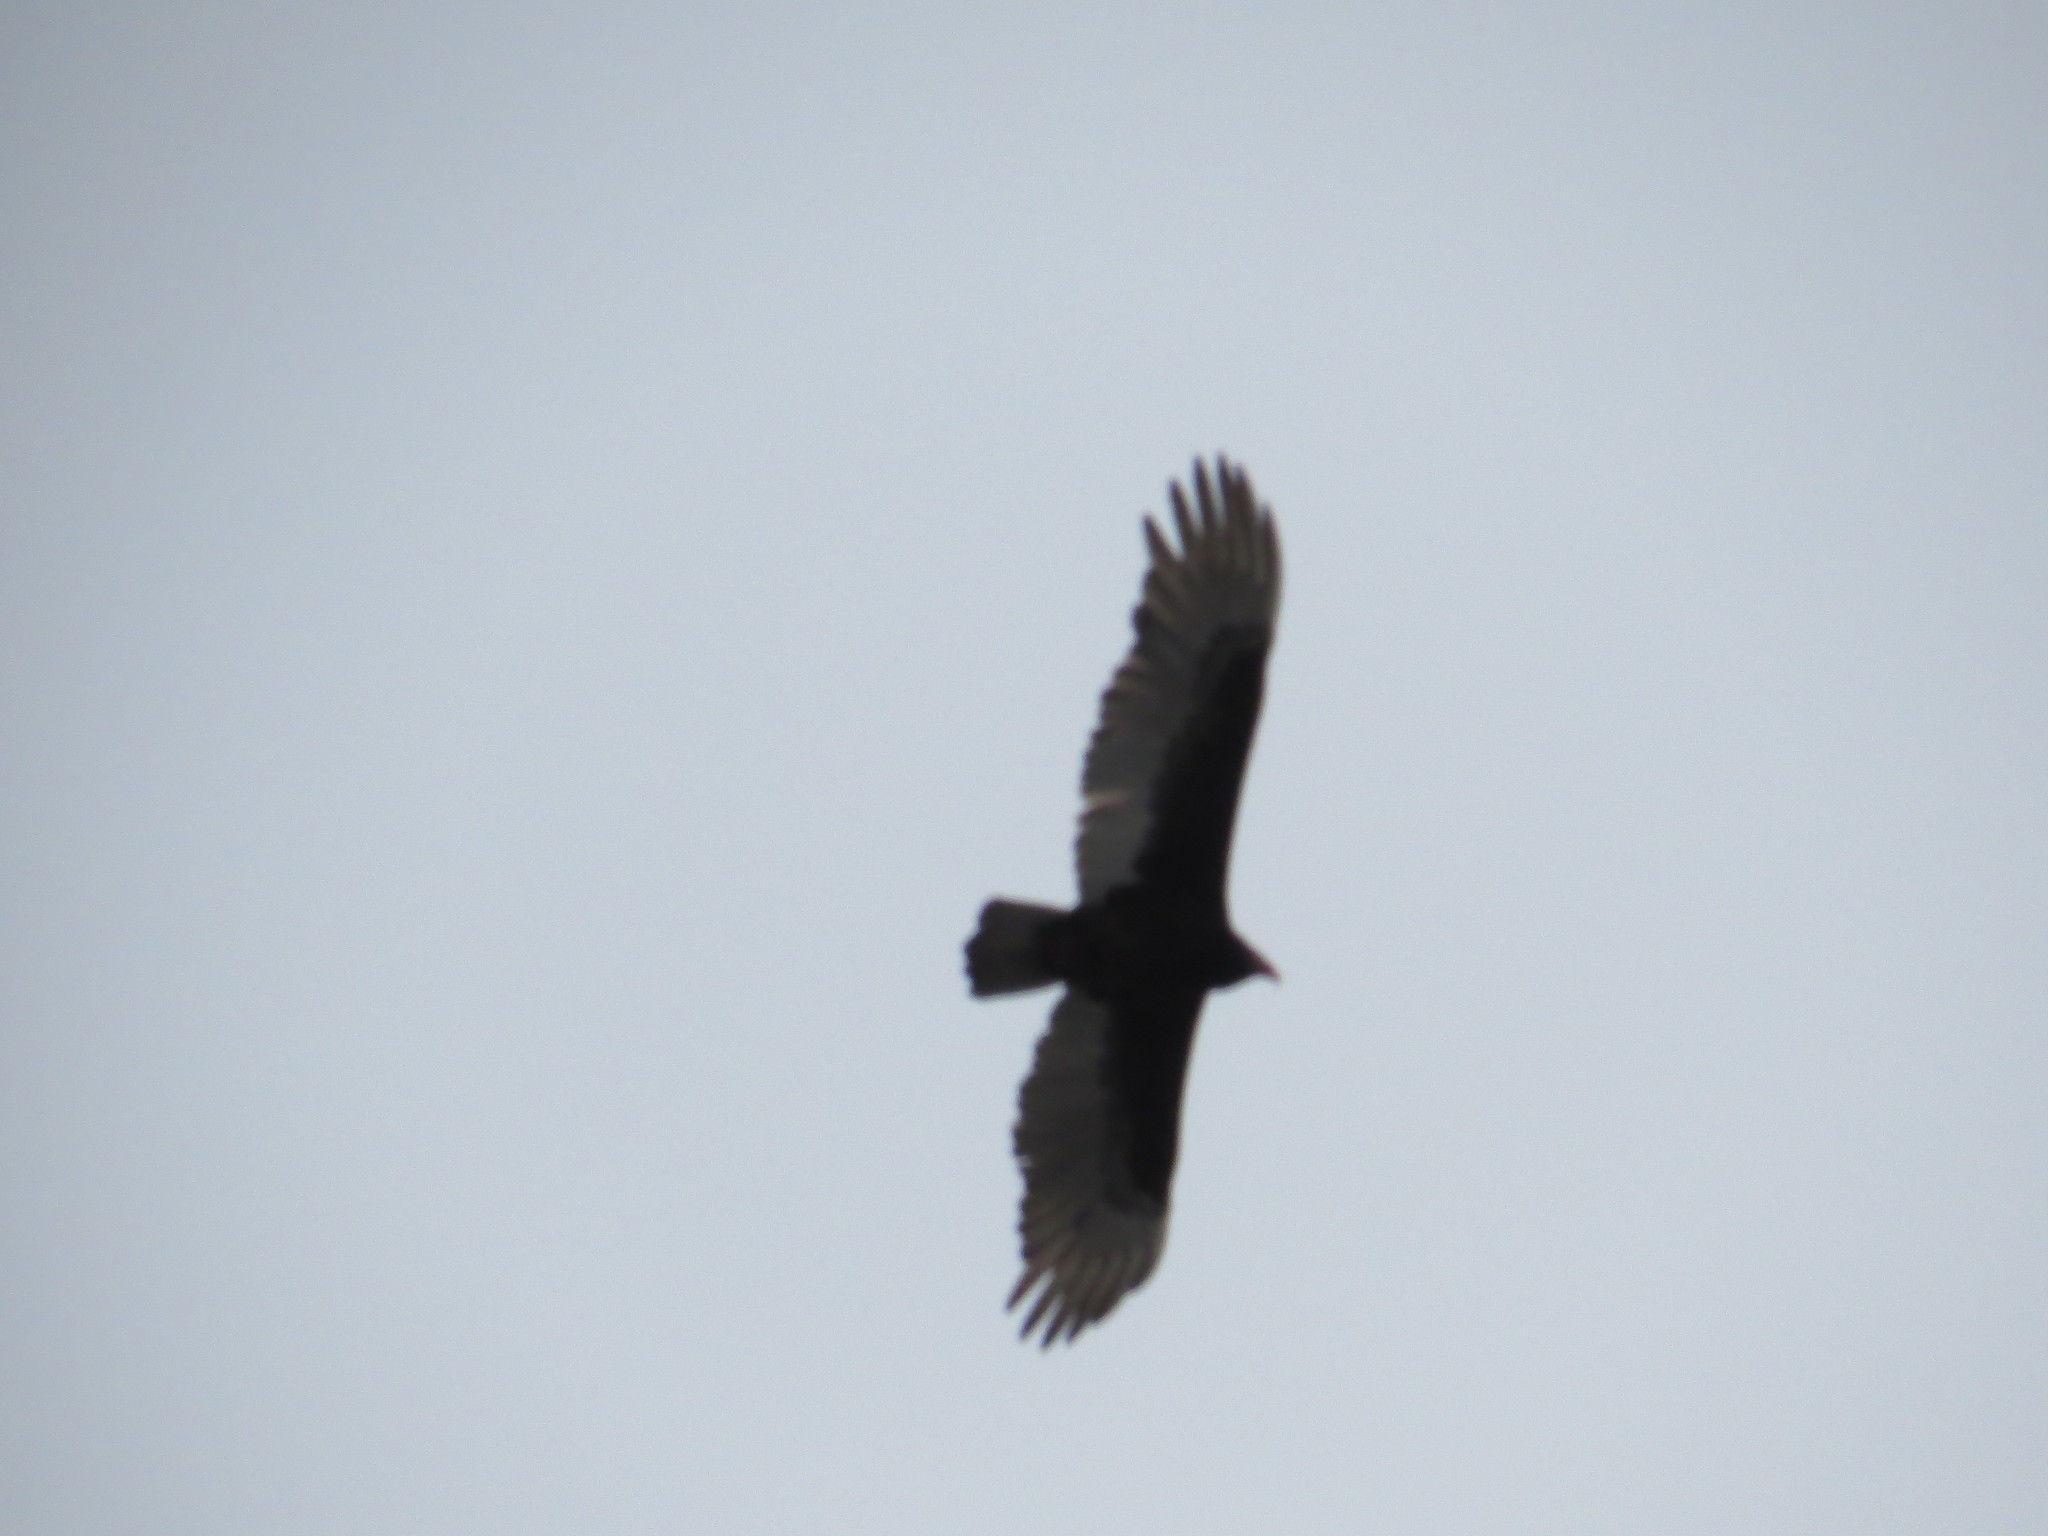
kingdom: Animalia
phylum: Chordata
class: Aves
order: Accipitriformes
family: Cathartidae
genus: Cathartes
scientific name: Cathartes aura
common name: Turkey vulture
